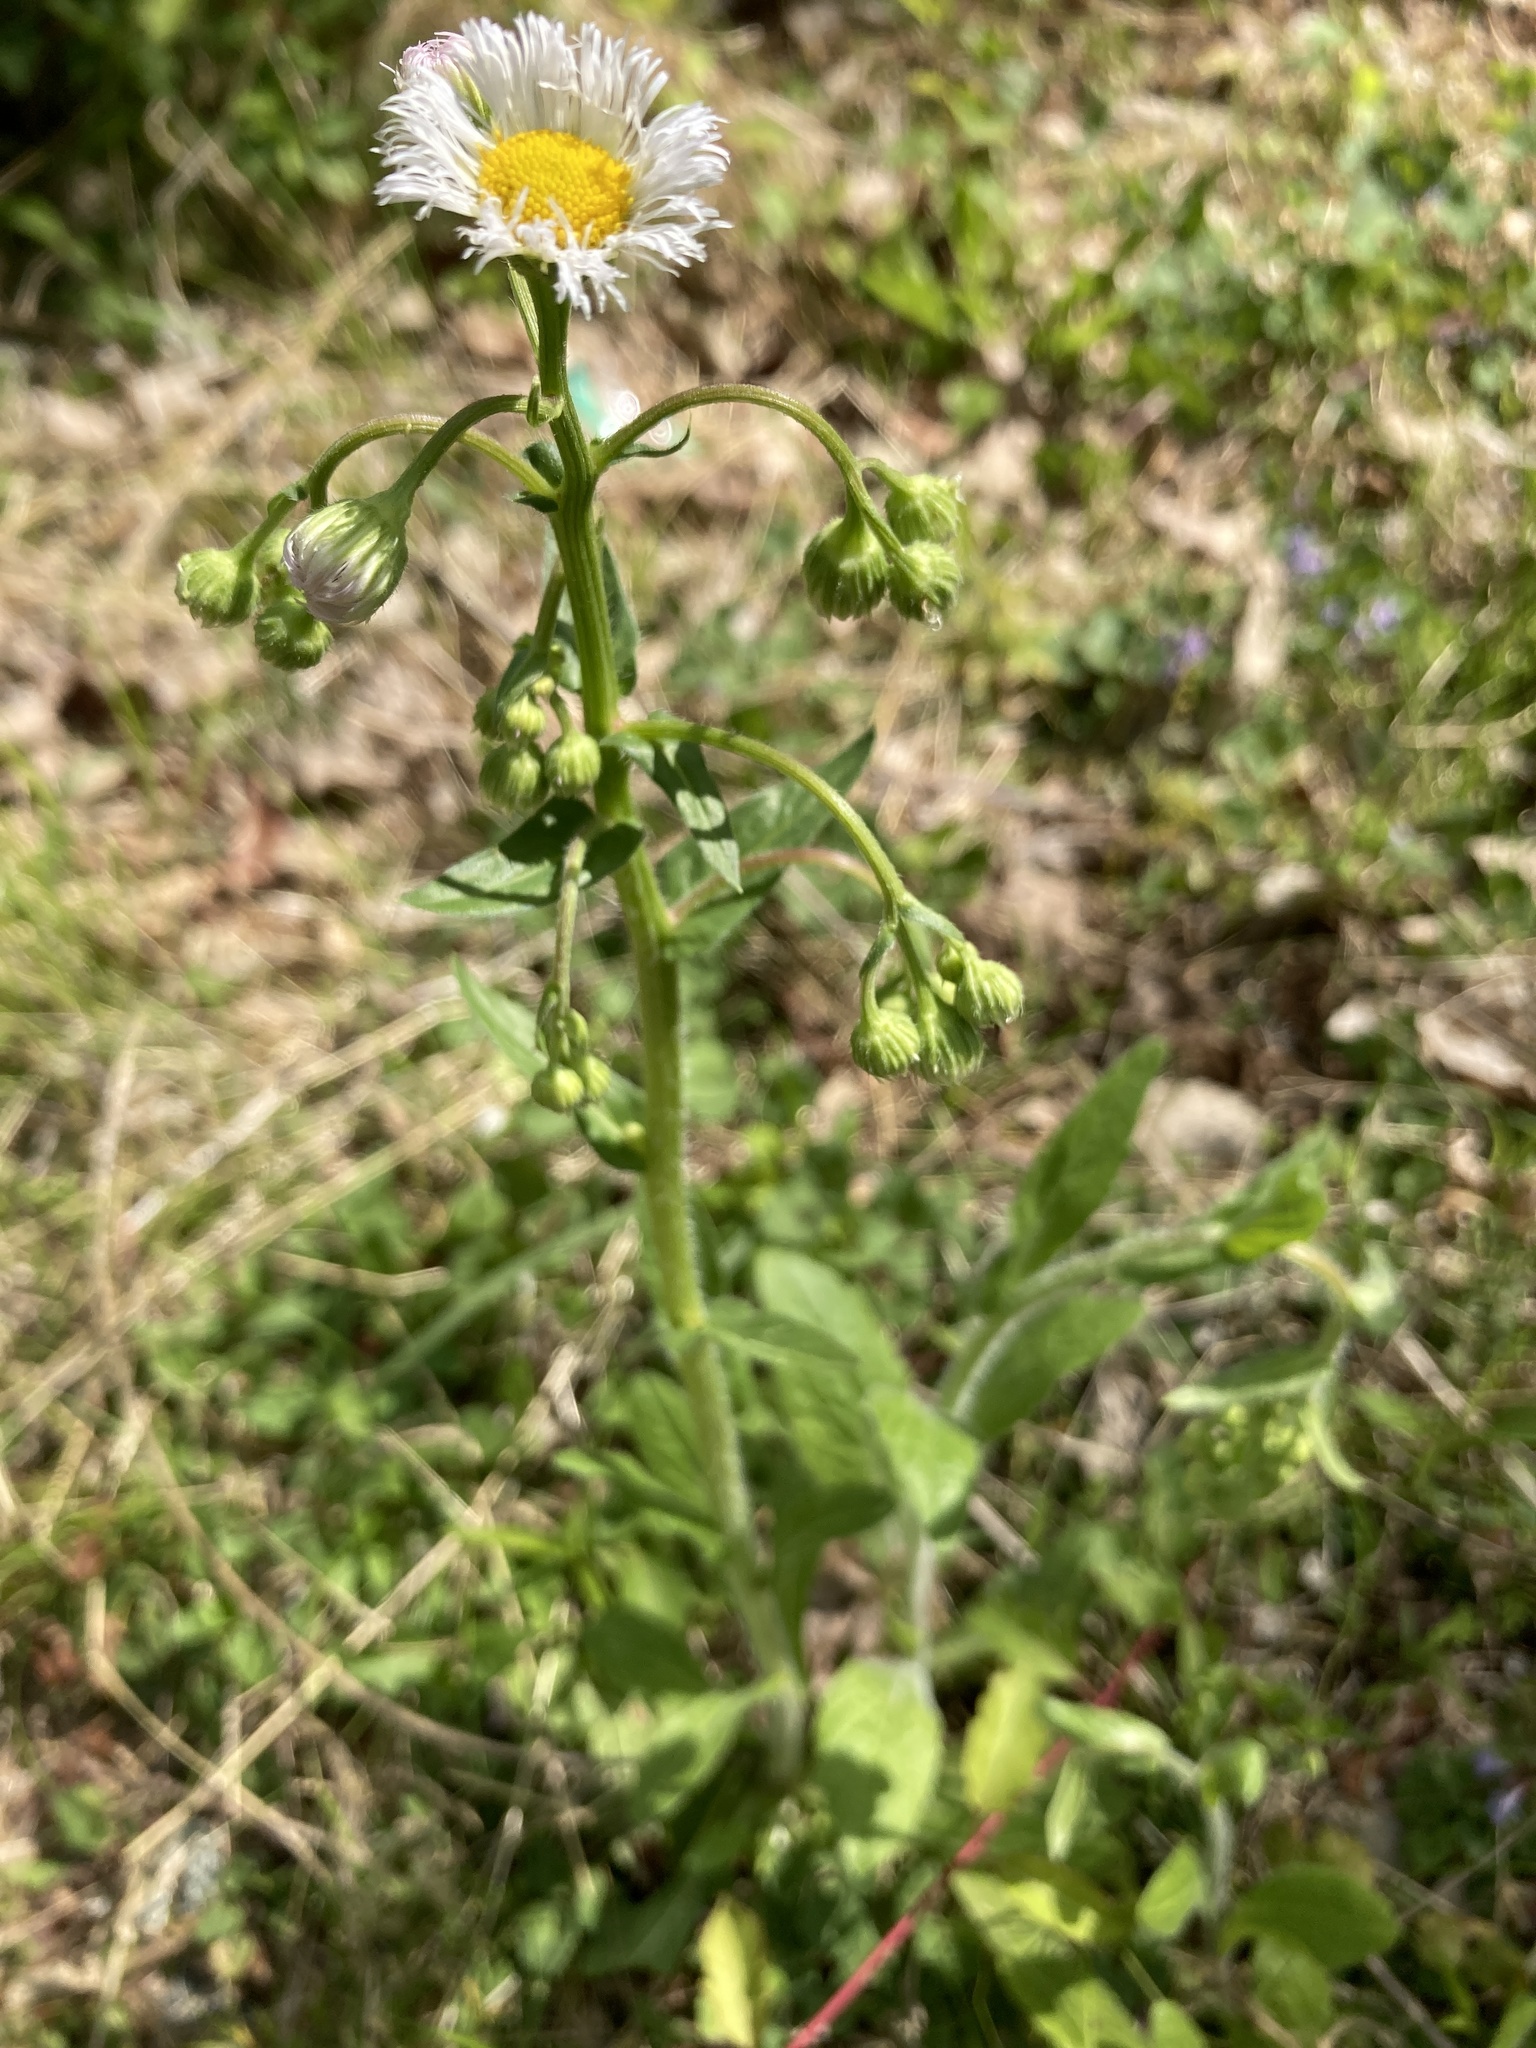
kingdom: Plantae
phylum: Tracheophyta
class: Magnoliopsida
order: Asterales
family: Asteraceae
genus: Erigeron
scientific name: Erigeron philadelphicus
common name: Robin's-plantain
